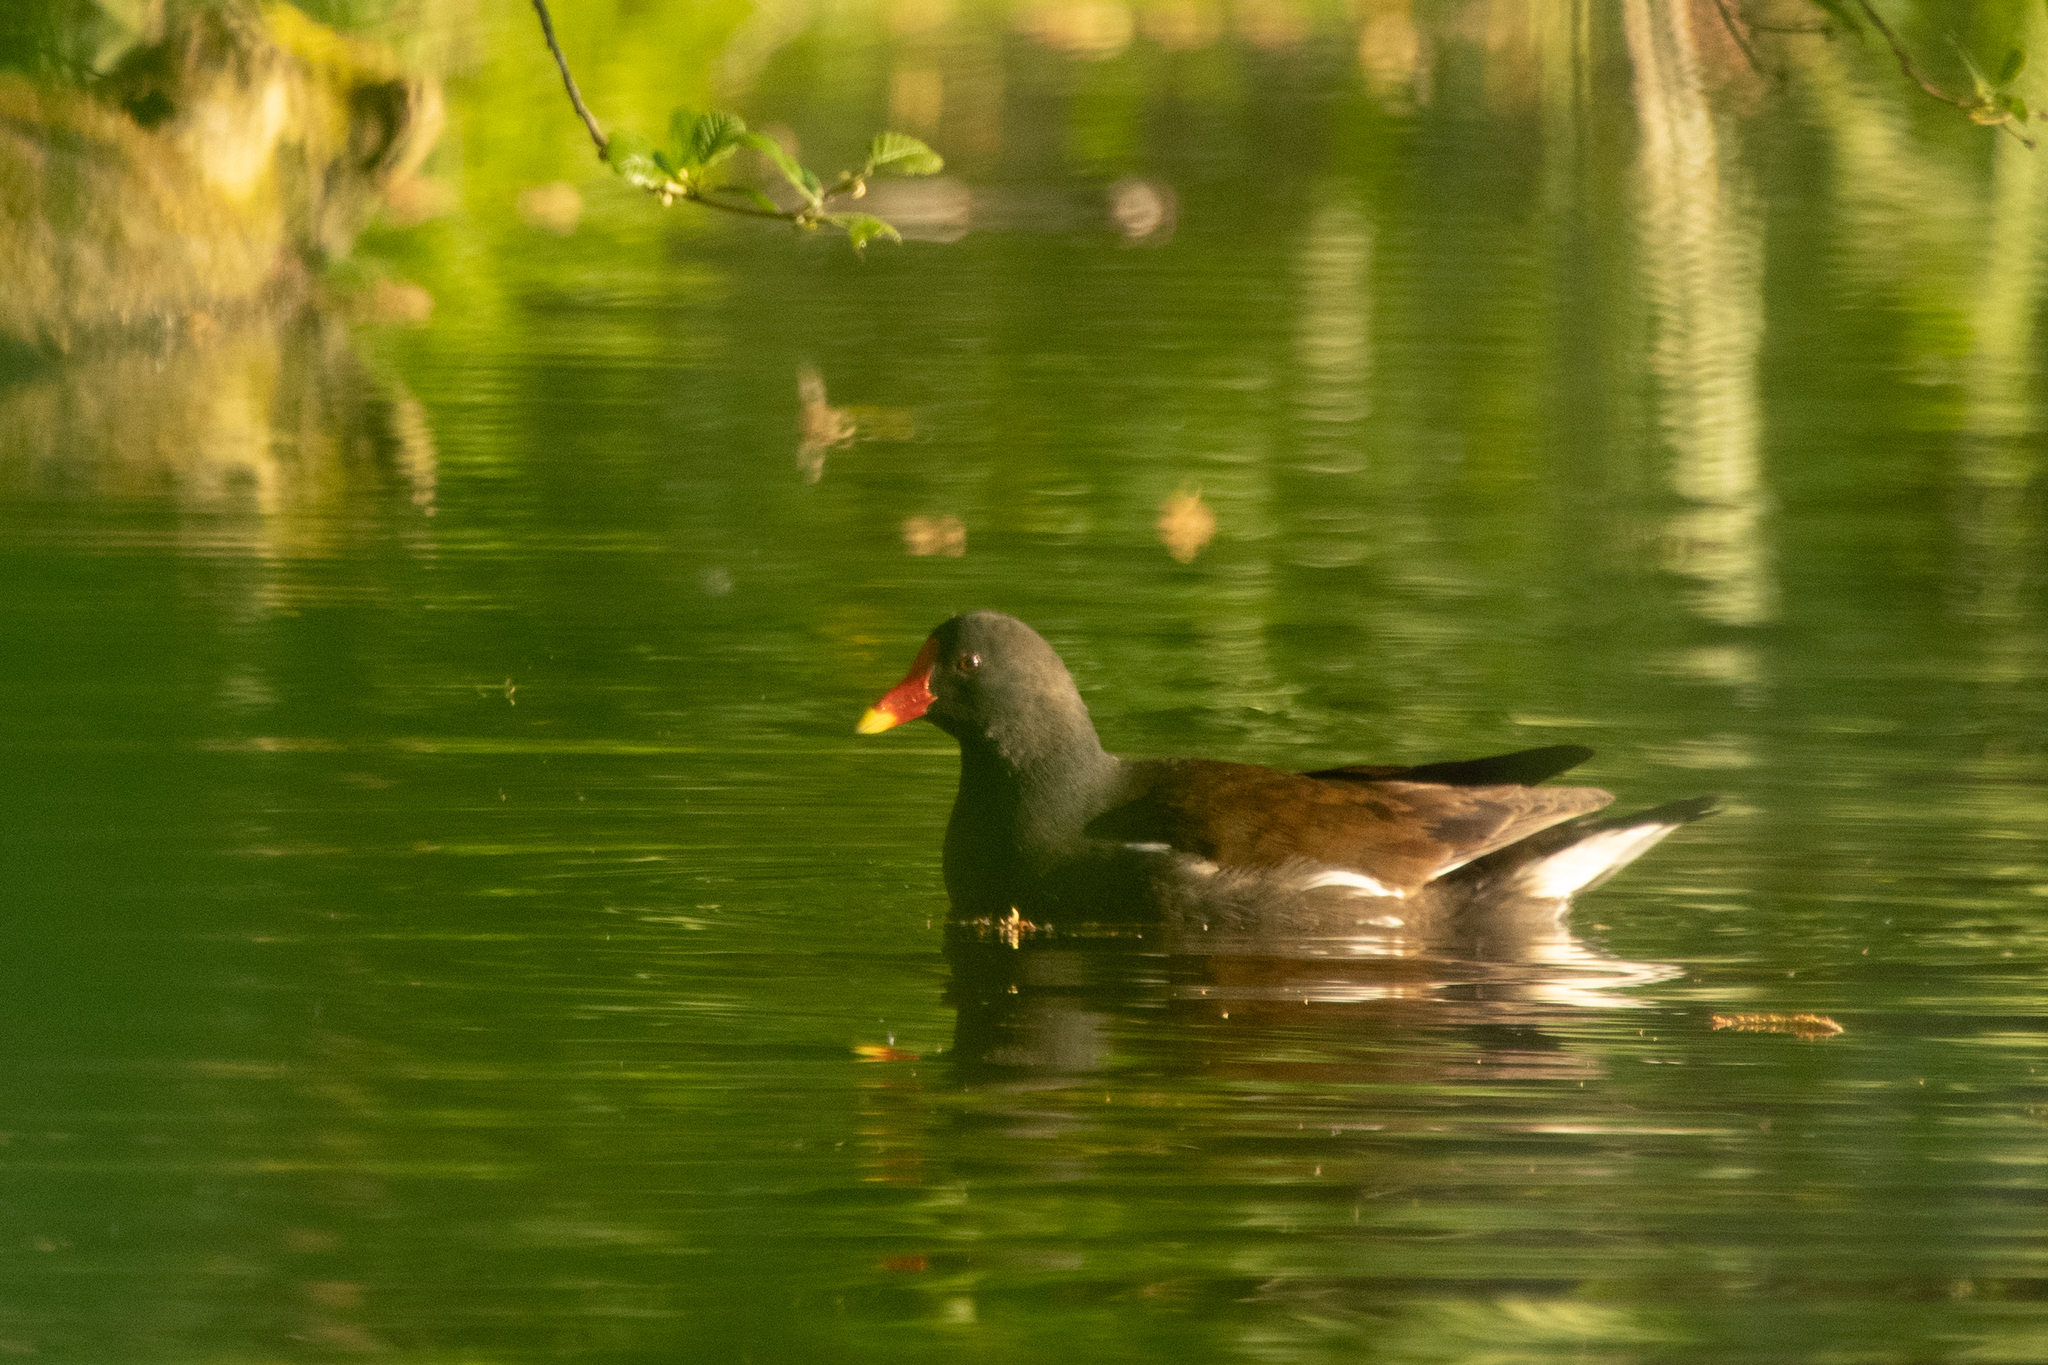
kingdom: Animalia
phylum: Chordata
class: Aves
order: Gruiformes
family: Rallidae
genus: Gallinula
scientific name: Gallinula chloropus
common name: Common moorhen
